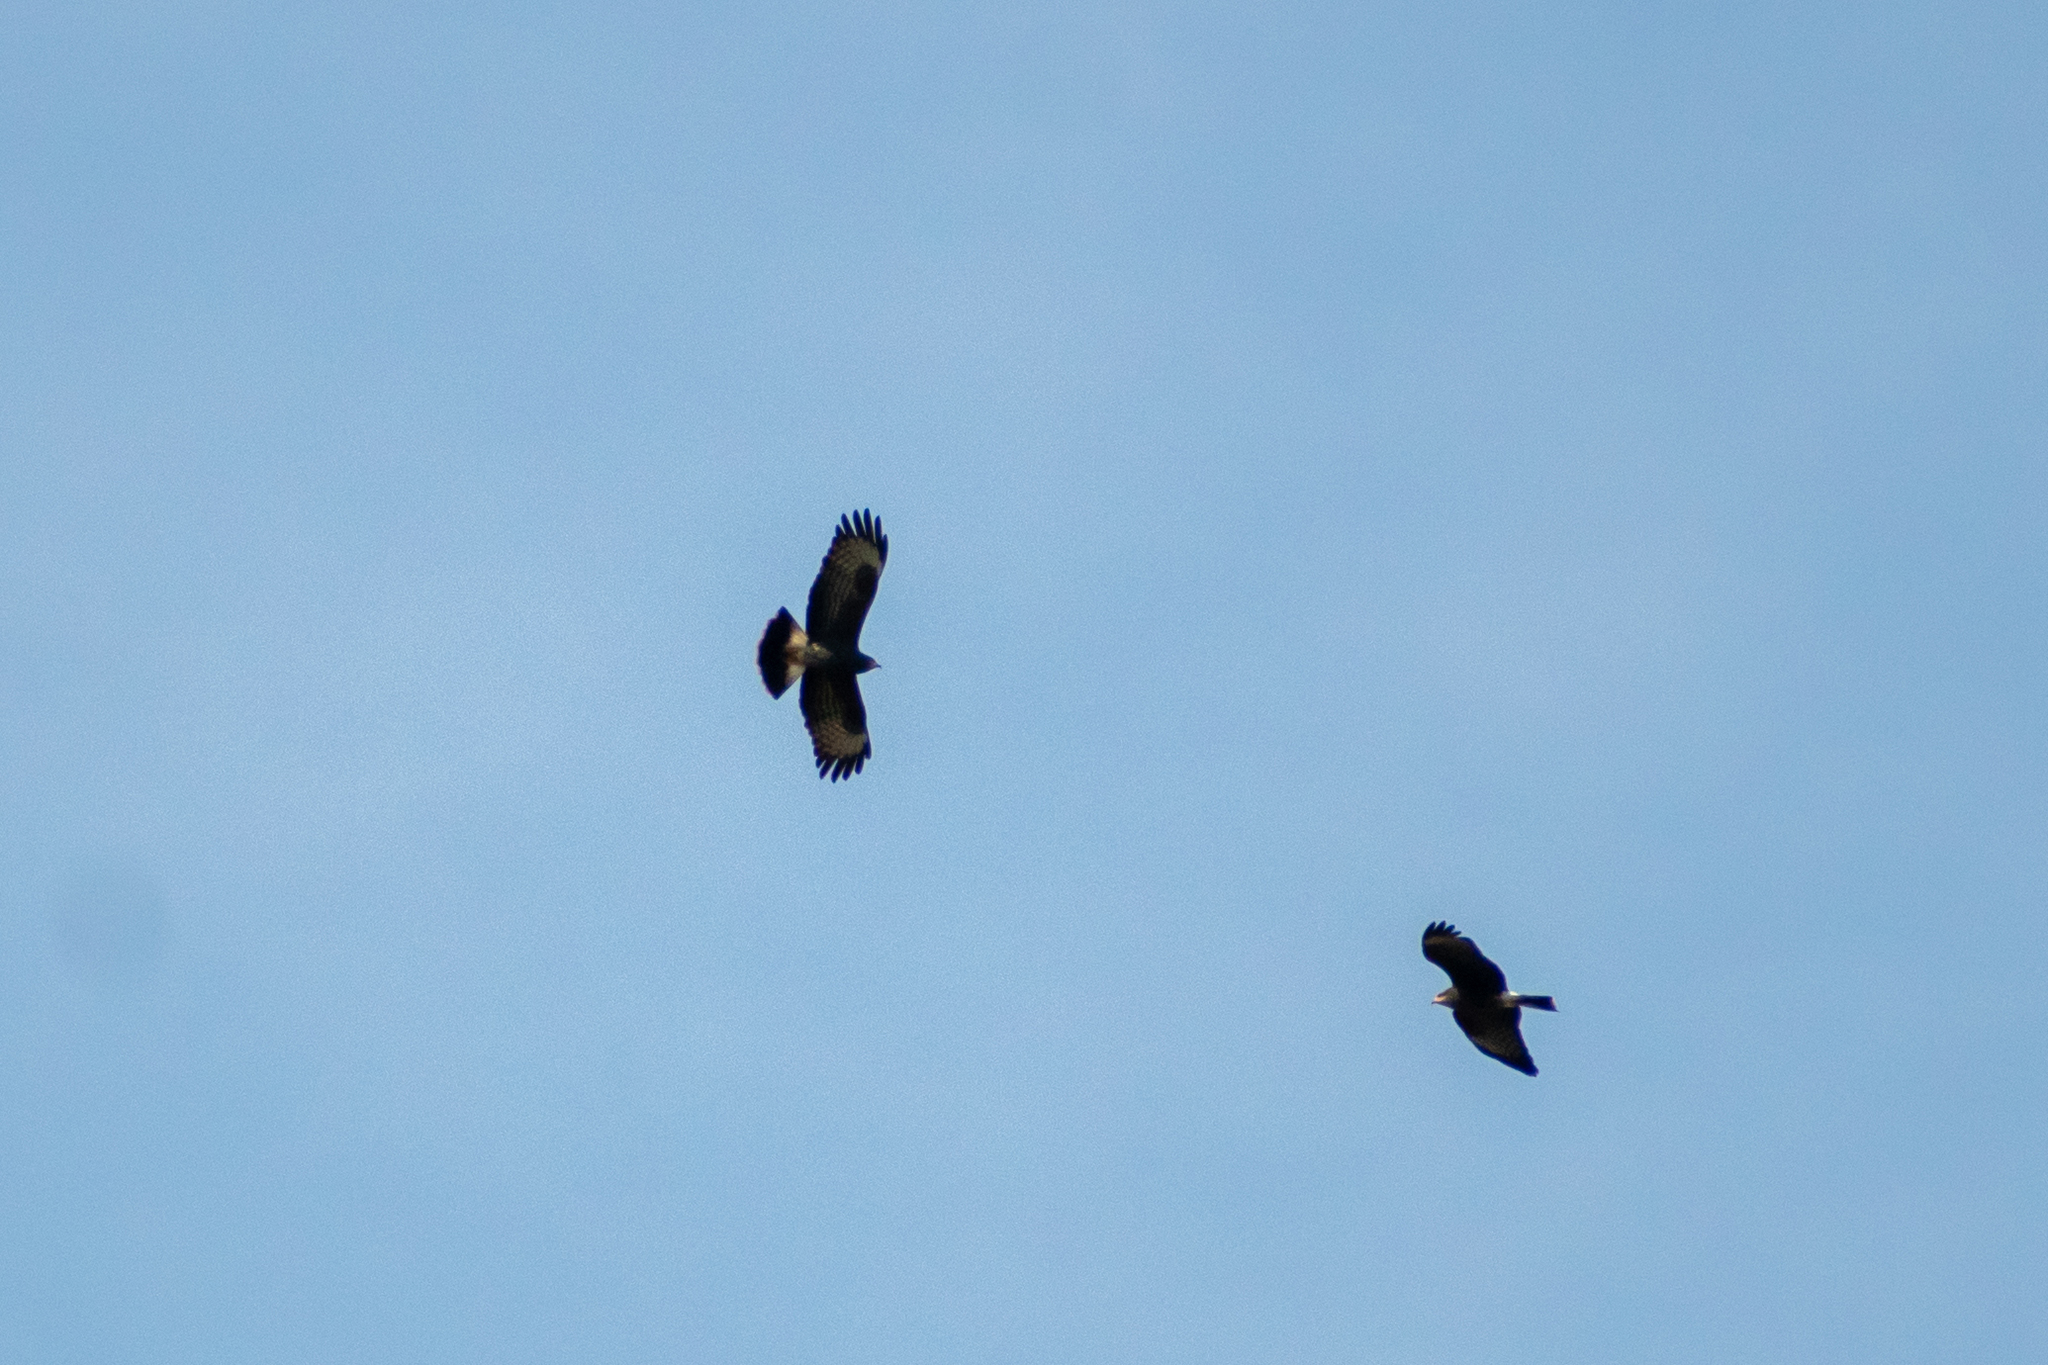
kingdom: Animalia
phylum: Chordata
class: Aves
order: Accipitriformes
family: Accipitridae
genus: Rostrhamus
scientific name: Rostrhamus sociabilis
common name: Snail kite
